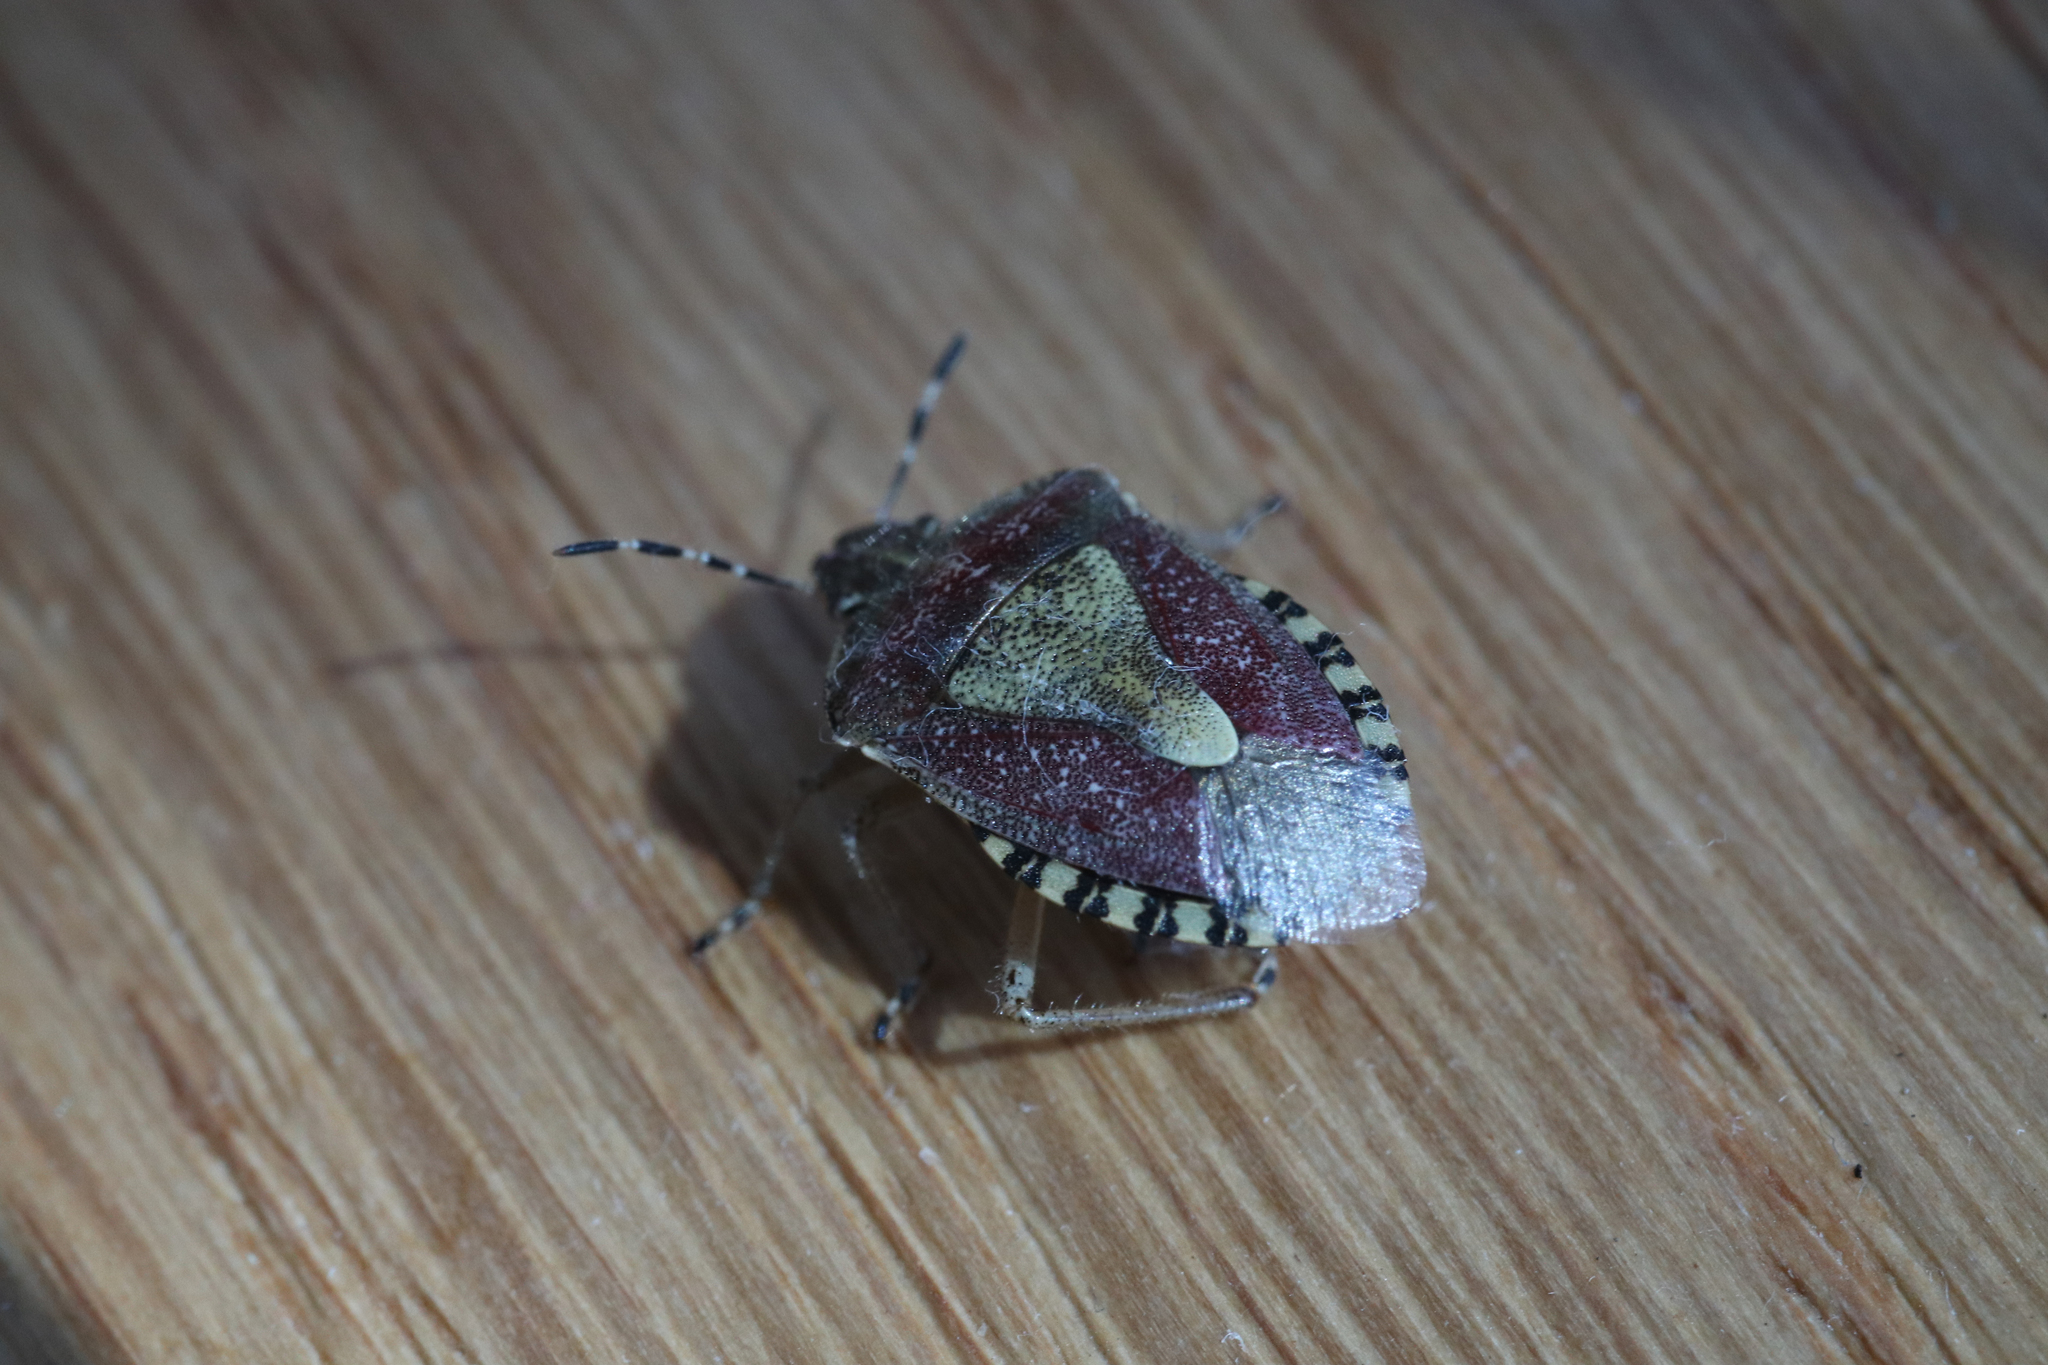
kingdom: Animalia
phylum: Arthropoda
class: Insecta
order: Hemiptera
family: Pentatomidae
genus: Dolycoris
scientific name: Dolycoris baccarum
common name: Sloe bug
